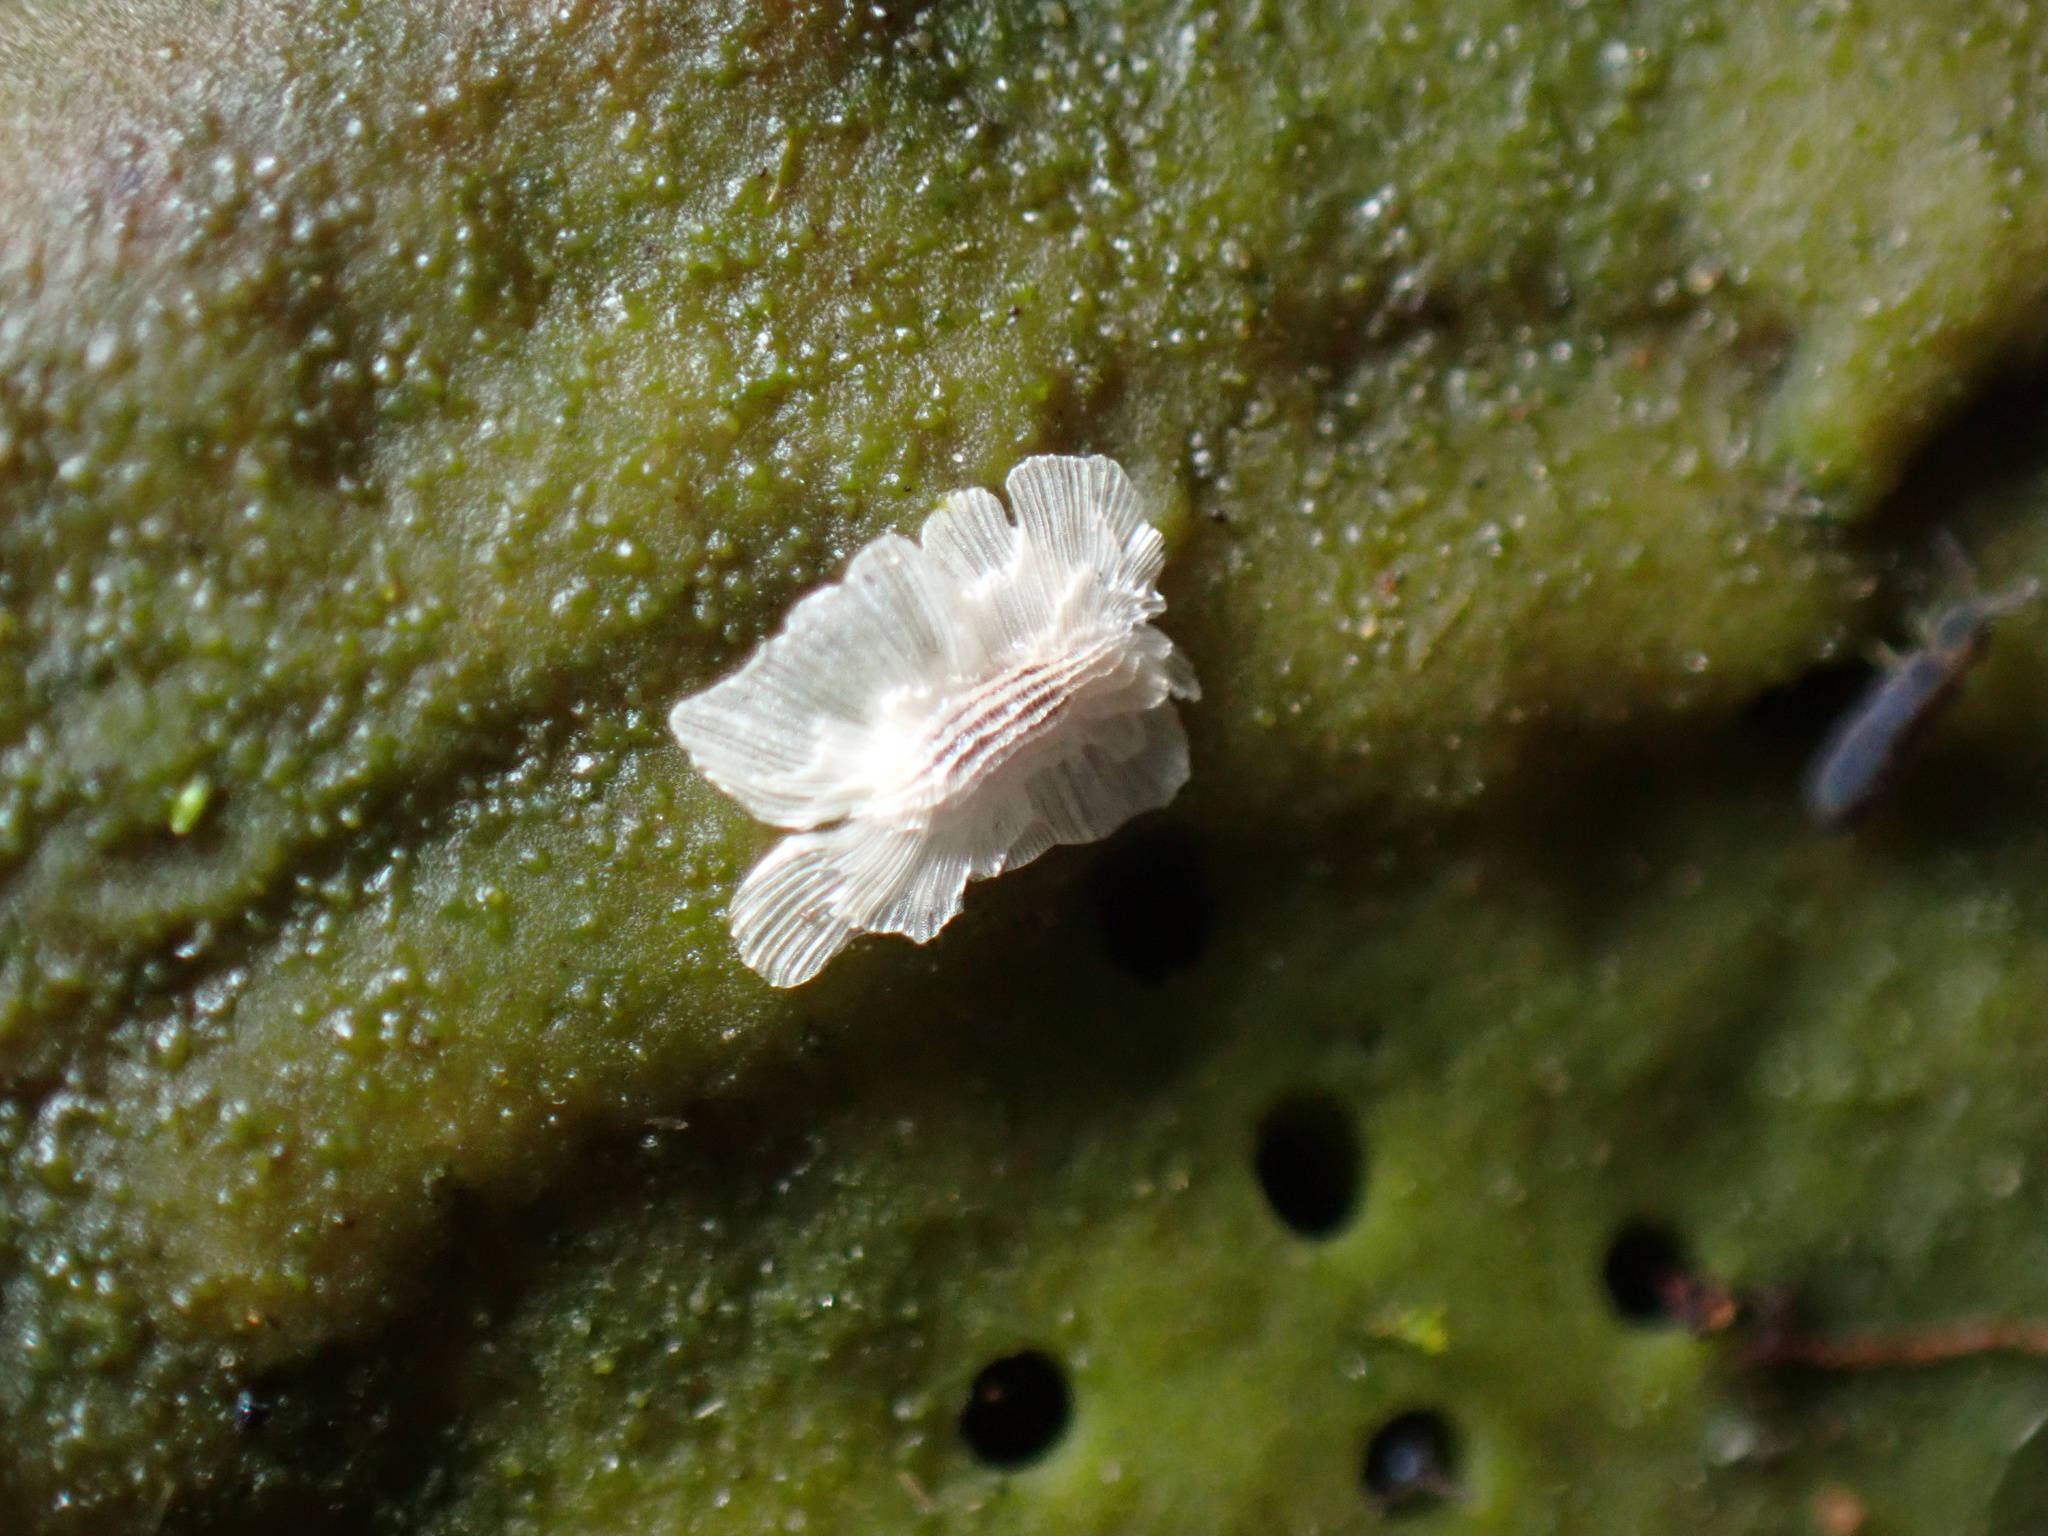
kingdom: Plantae
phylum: Tracheophyta
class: Magnoliopsida
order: Lamiales
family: Paulowniaceae
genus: Paulownia
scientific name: Paulownia tomentosa
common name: Foxglove-tree
